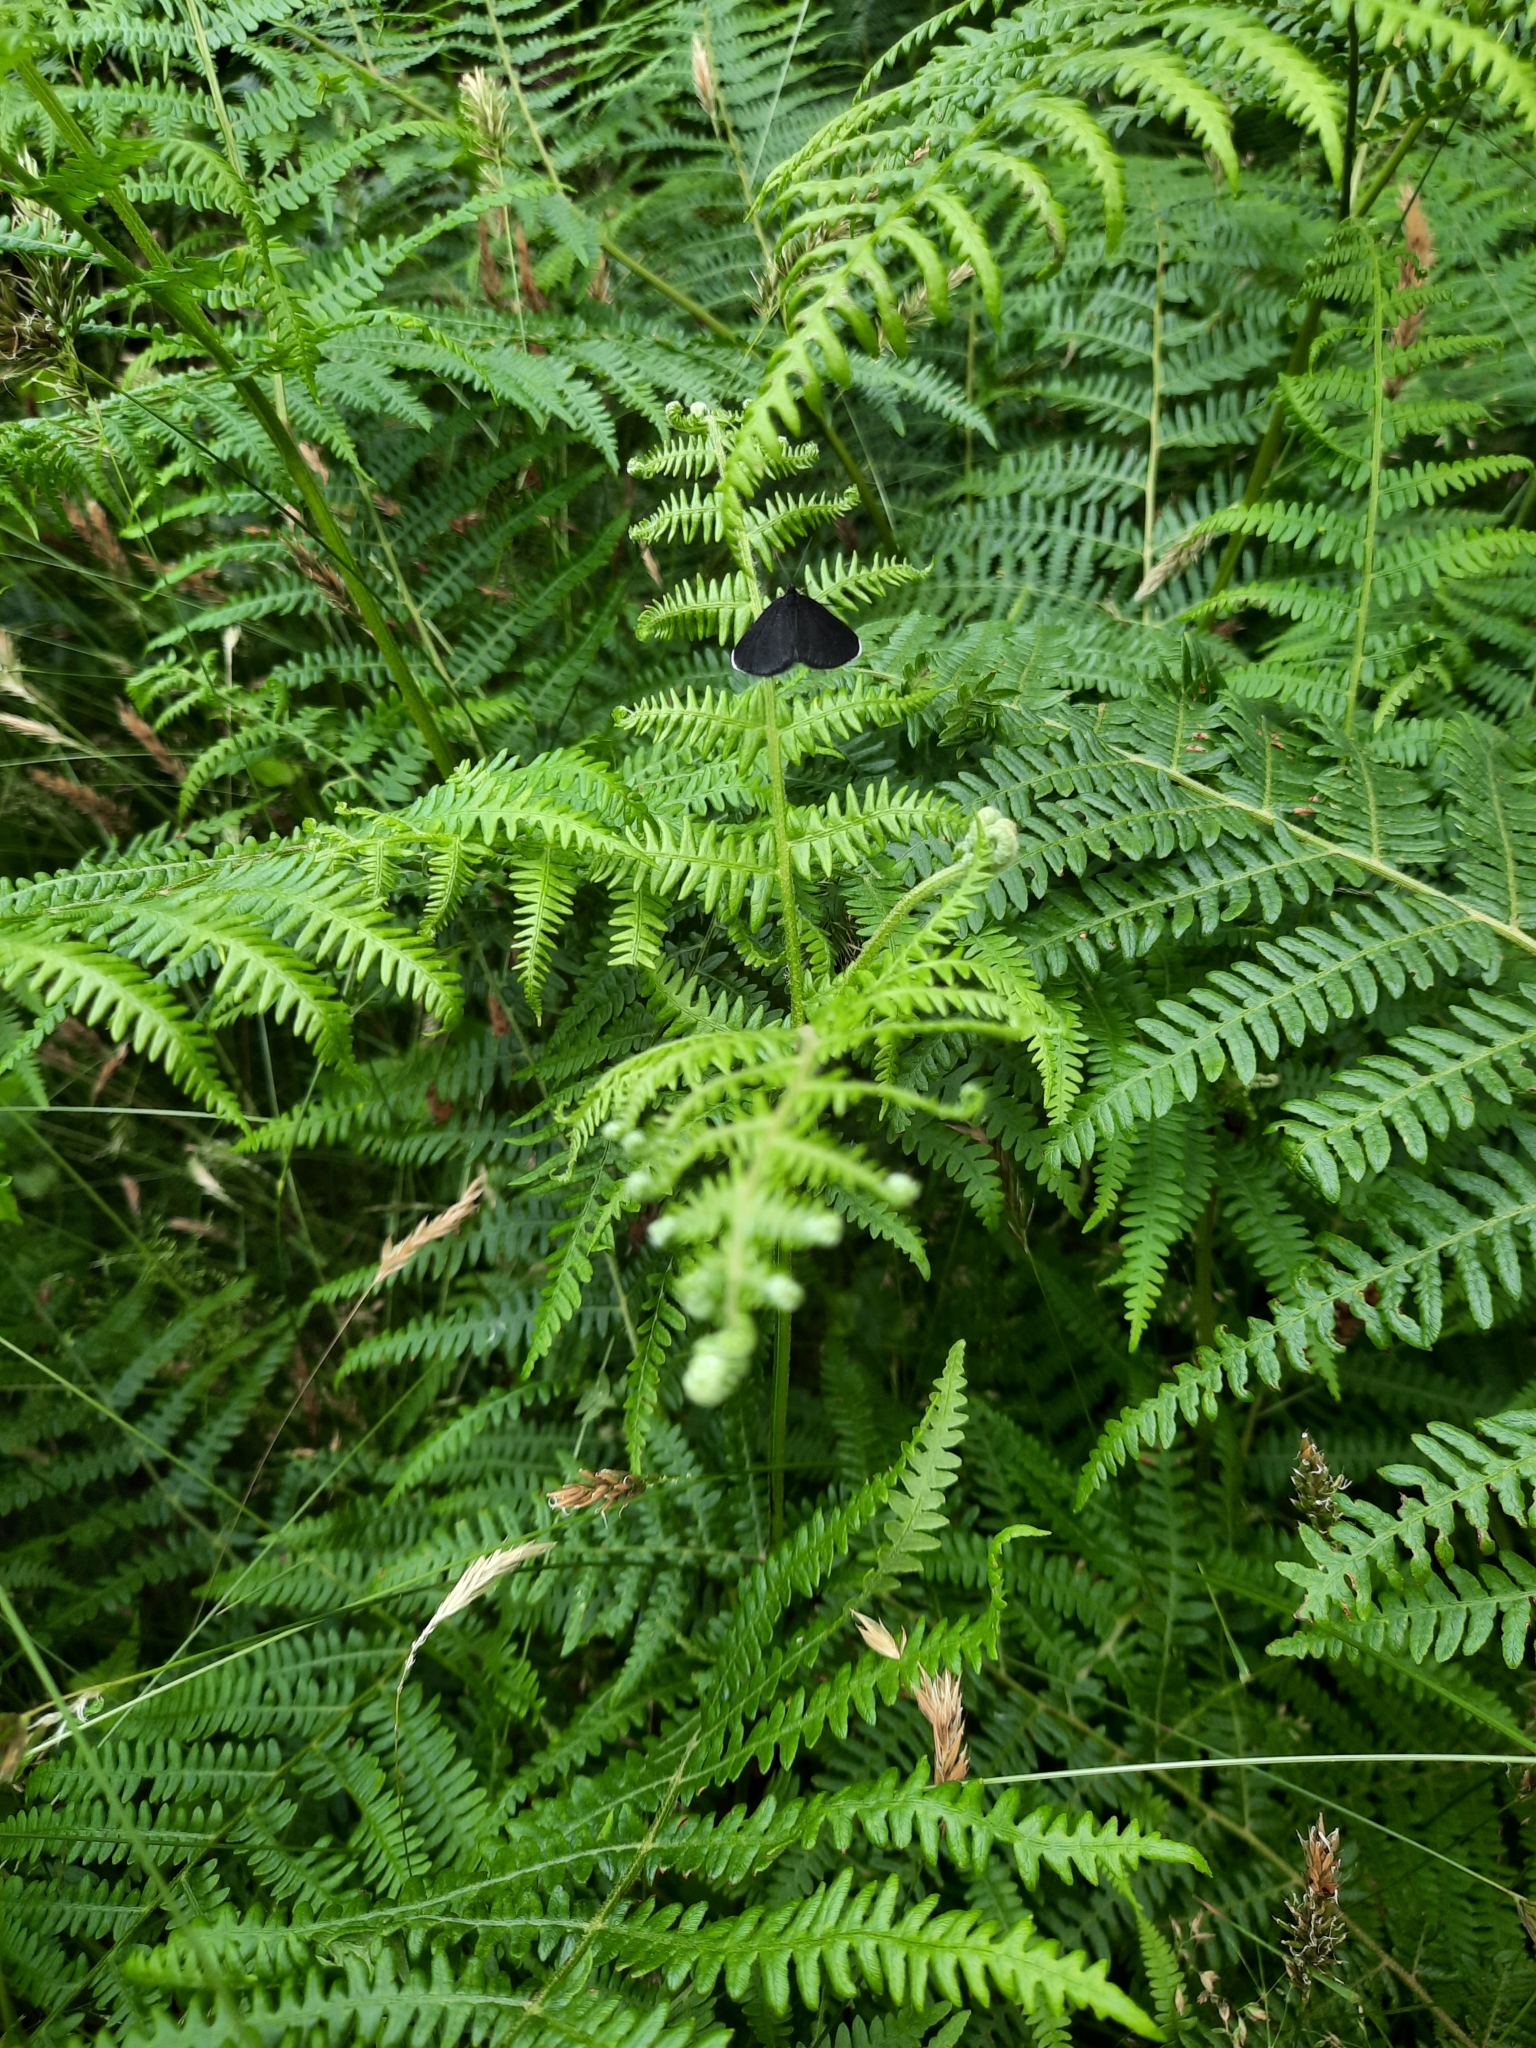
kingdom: Animalia
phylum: Arthropoda
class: Insecta
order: Lepidoptera
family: Geometridae
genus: Odezia
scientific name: Odezia atrata
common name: Chimney sweeper
